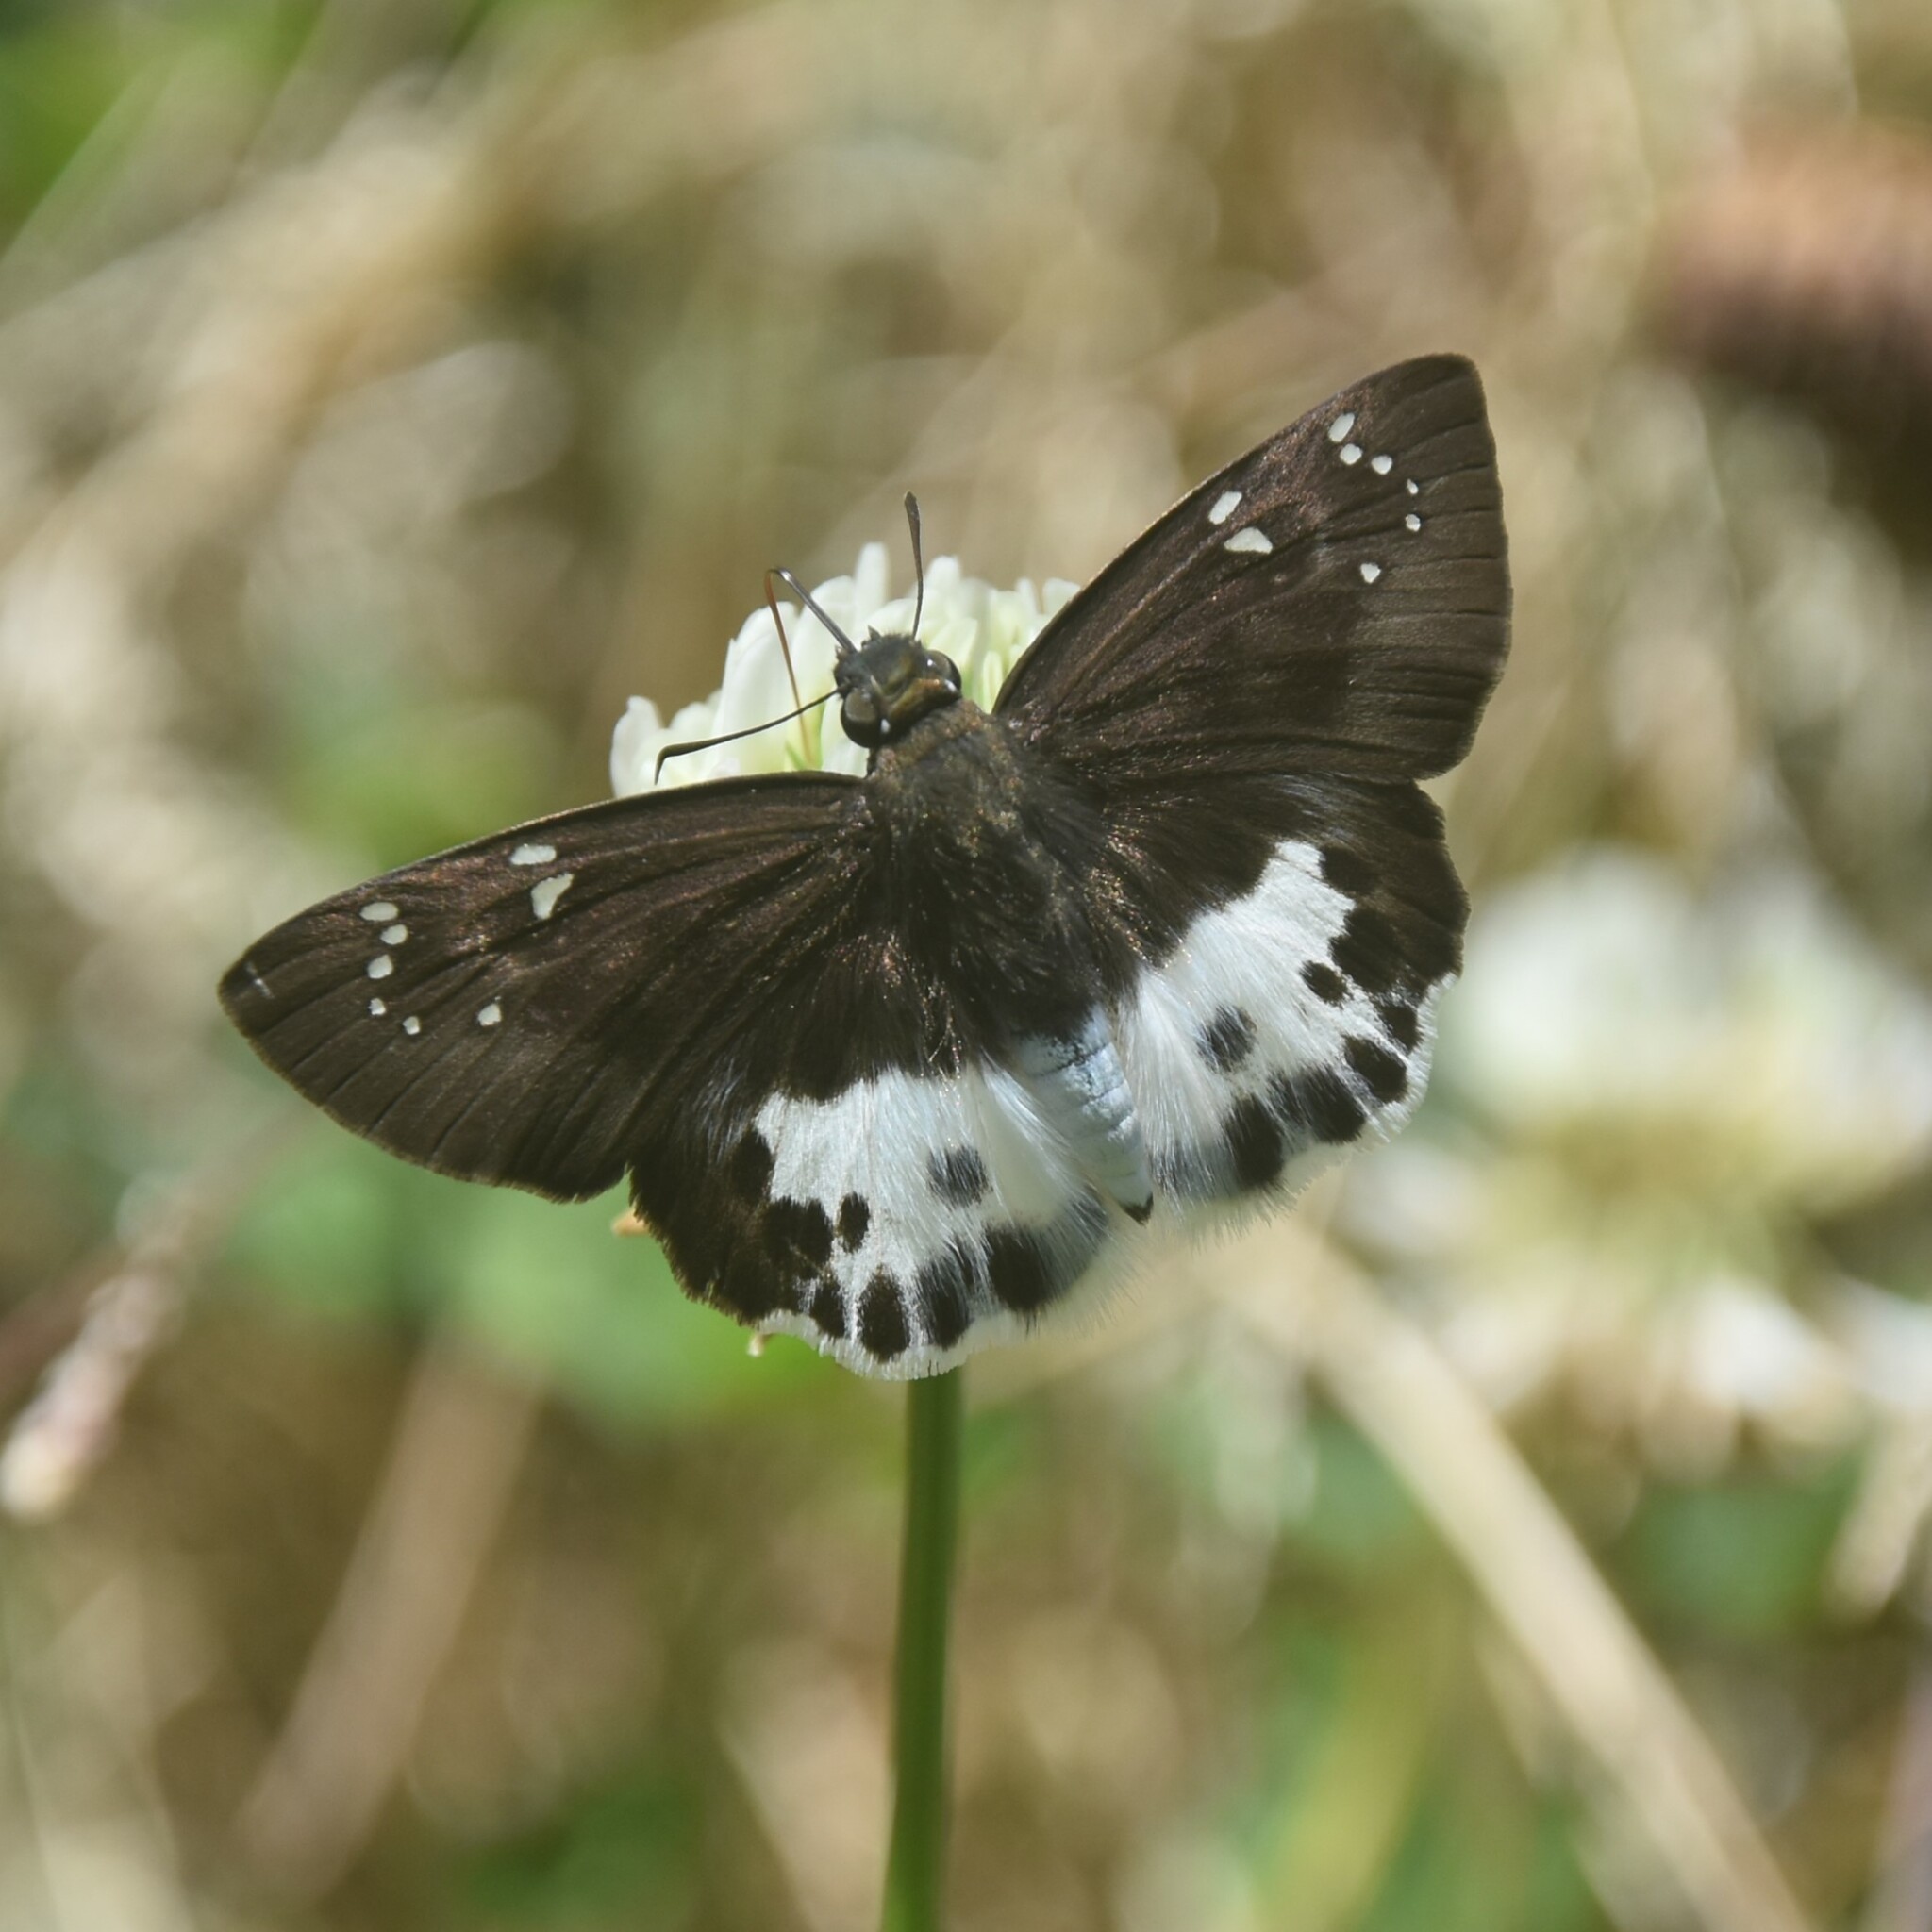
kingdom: Animalia
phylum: Arthropoda
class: Insecta
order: Lepidoptera
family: Hesperiidae
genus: Tagiades
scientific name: Tagiades menaka
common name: Dark-edged snow flat
